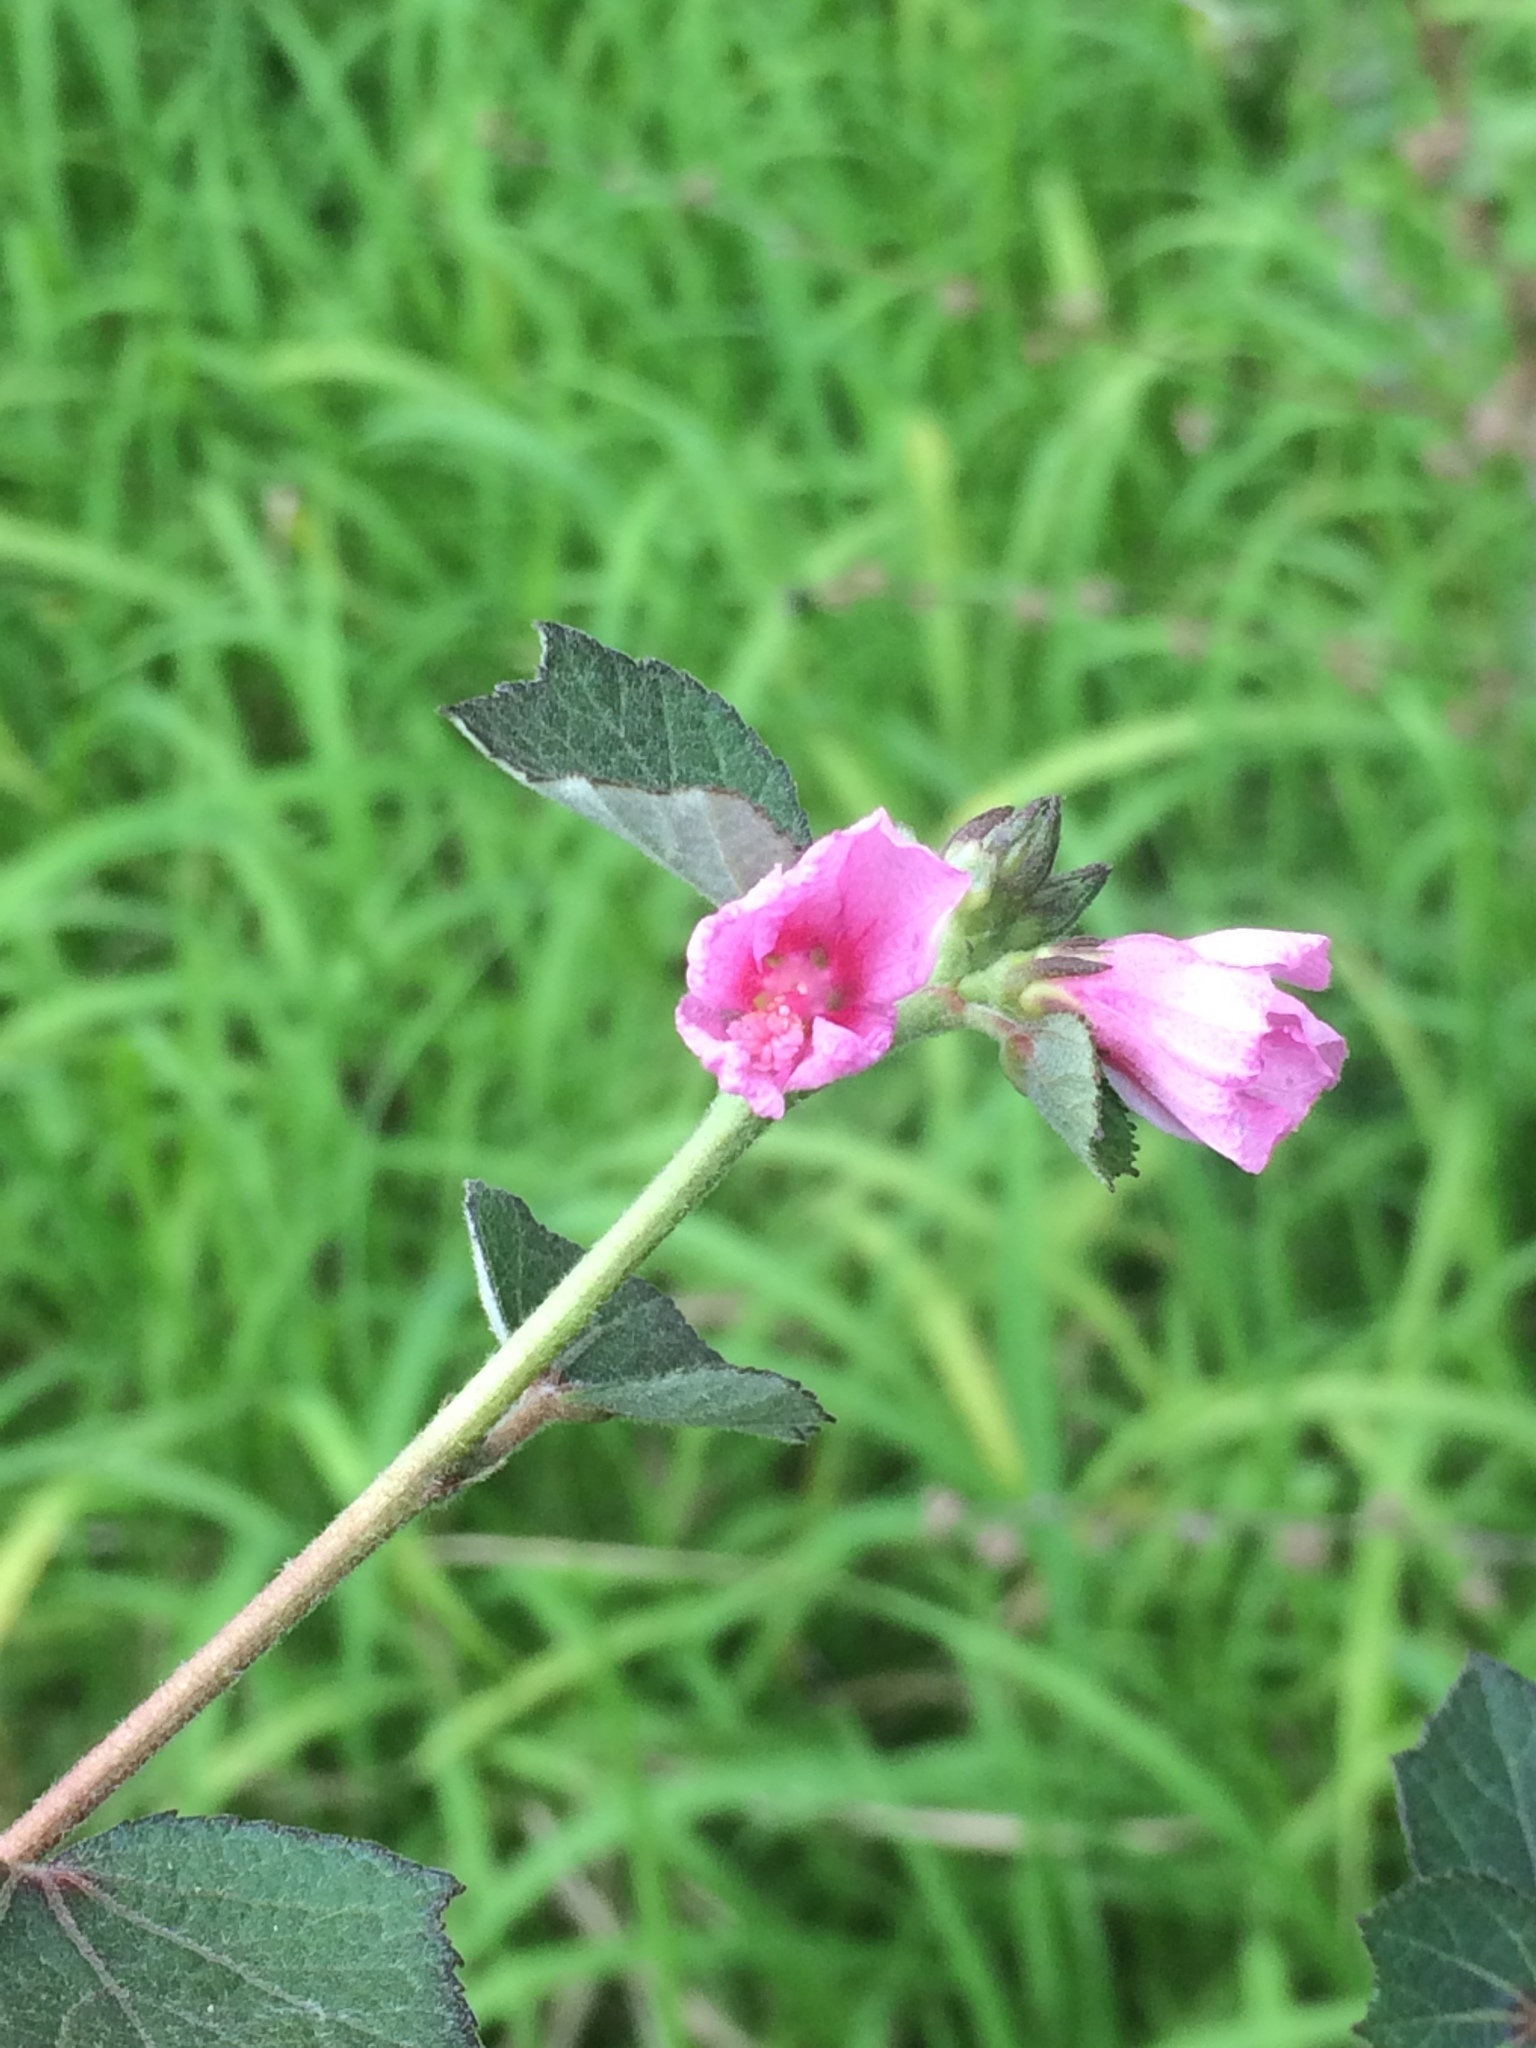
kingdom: Plantae
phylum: Tracheophyta
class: Magnoliopsida
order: Malvales
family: Malvaceae
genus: Urena
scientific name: Urena lobata
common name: Caesarweed
